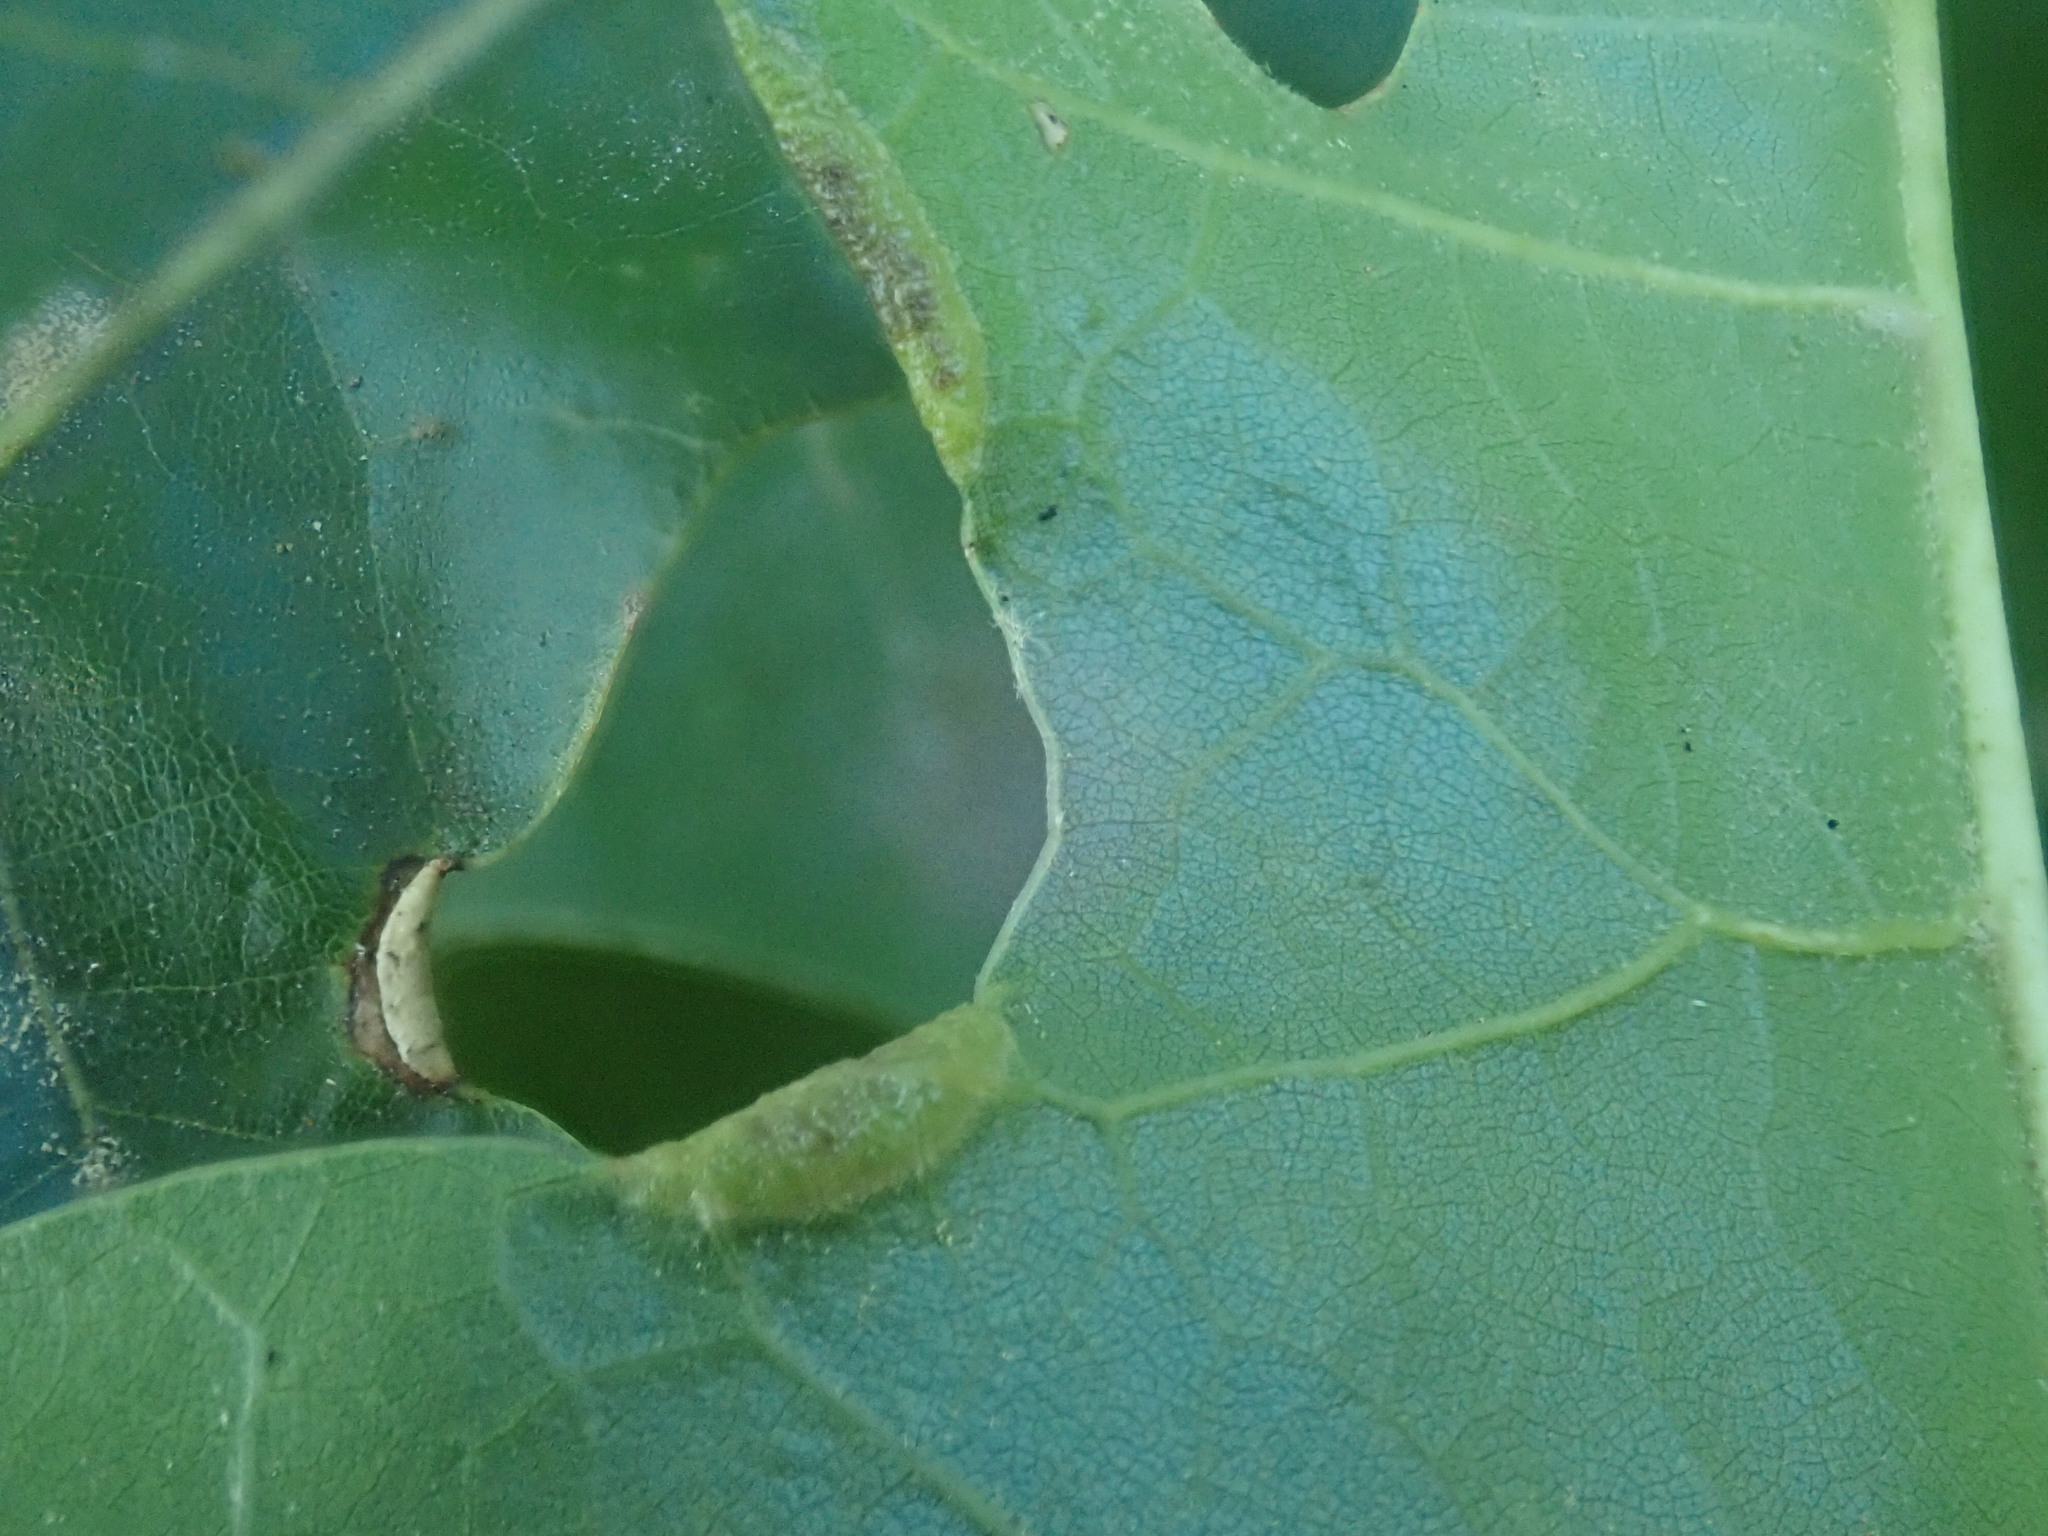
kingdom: Animalia
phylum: Arthropoda
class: Insecta
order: Diptera
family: Cecidomyiidae
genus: Macrodiplosis
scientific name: Macrodiplosis erubescens
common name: Marginal leaf fold gall midge
